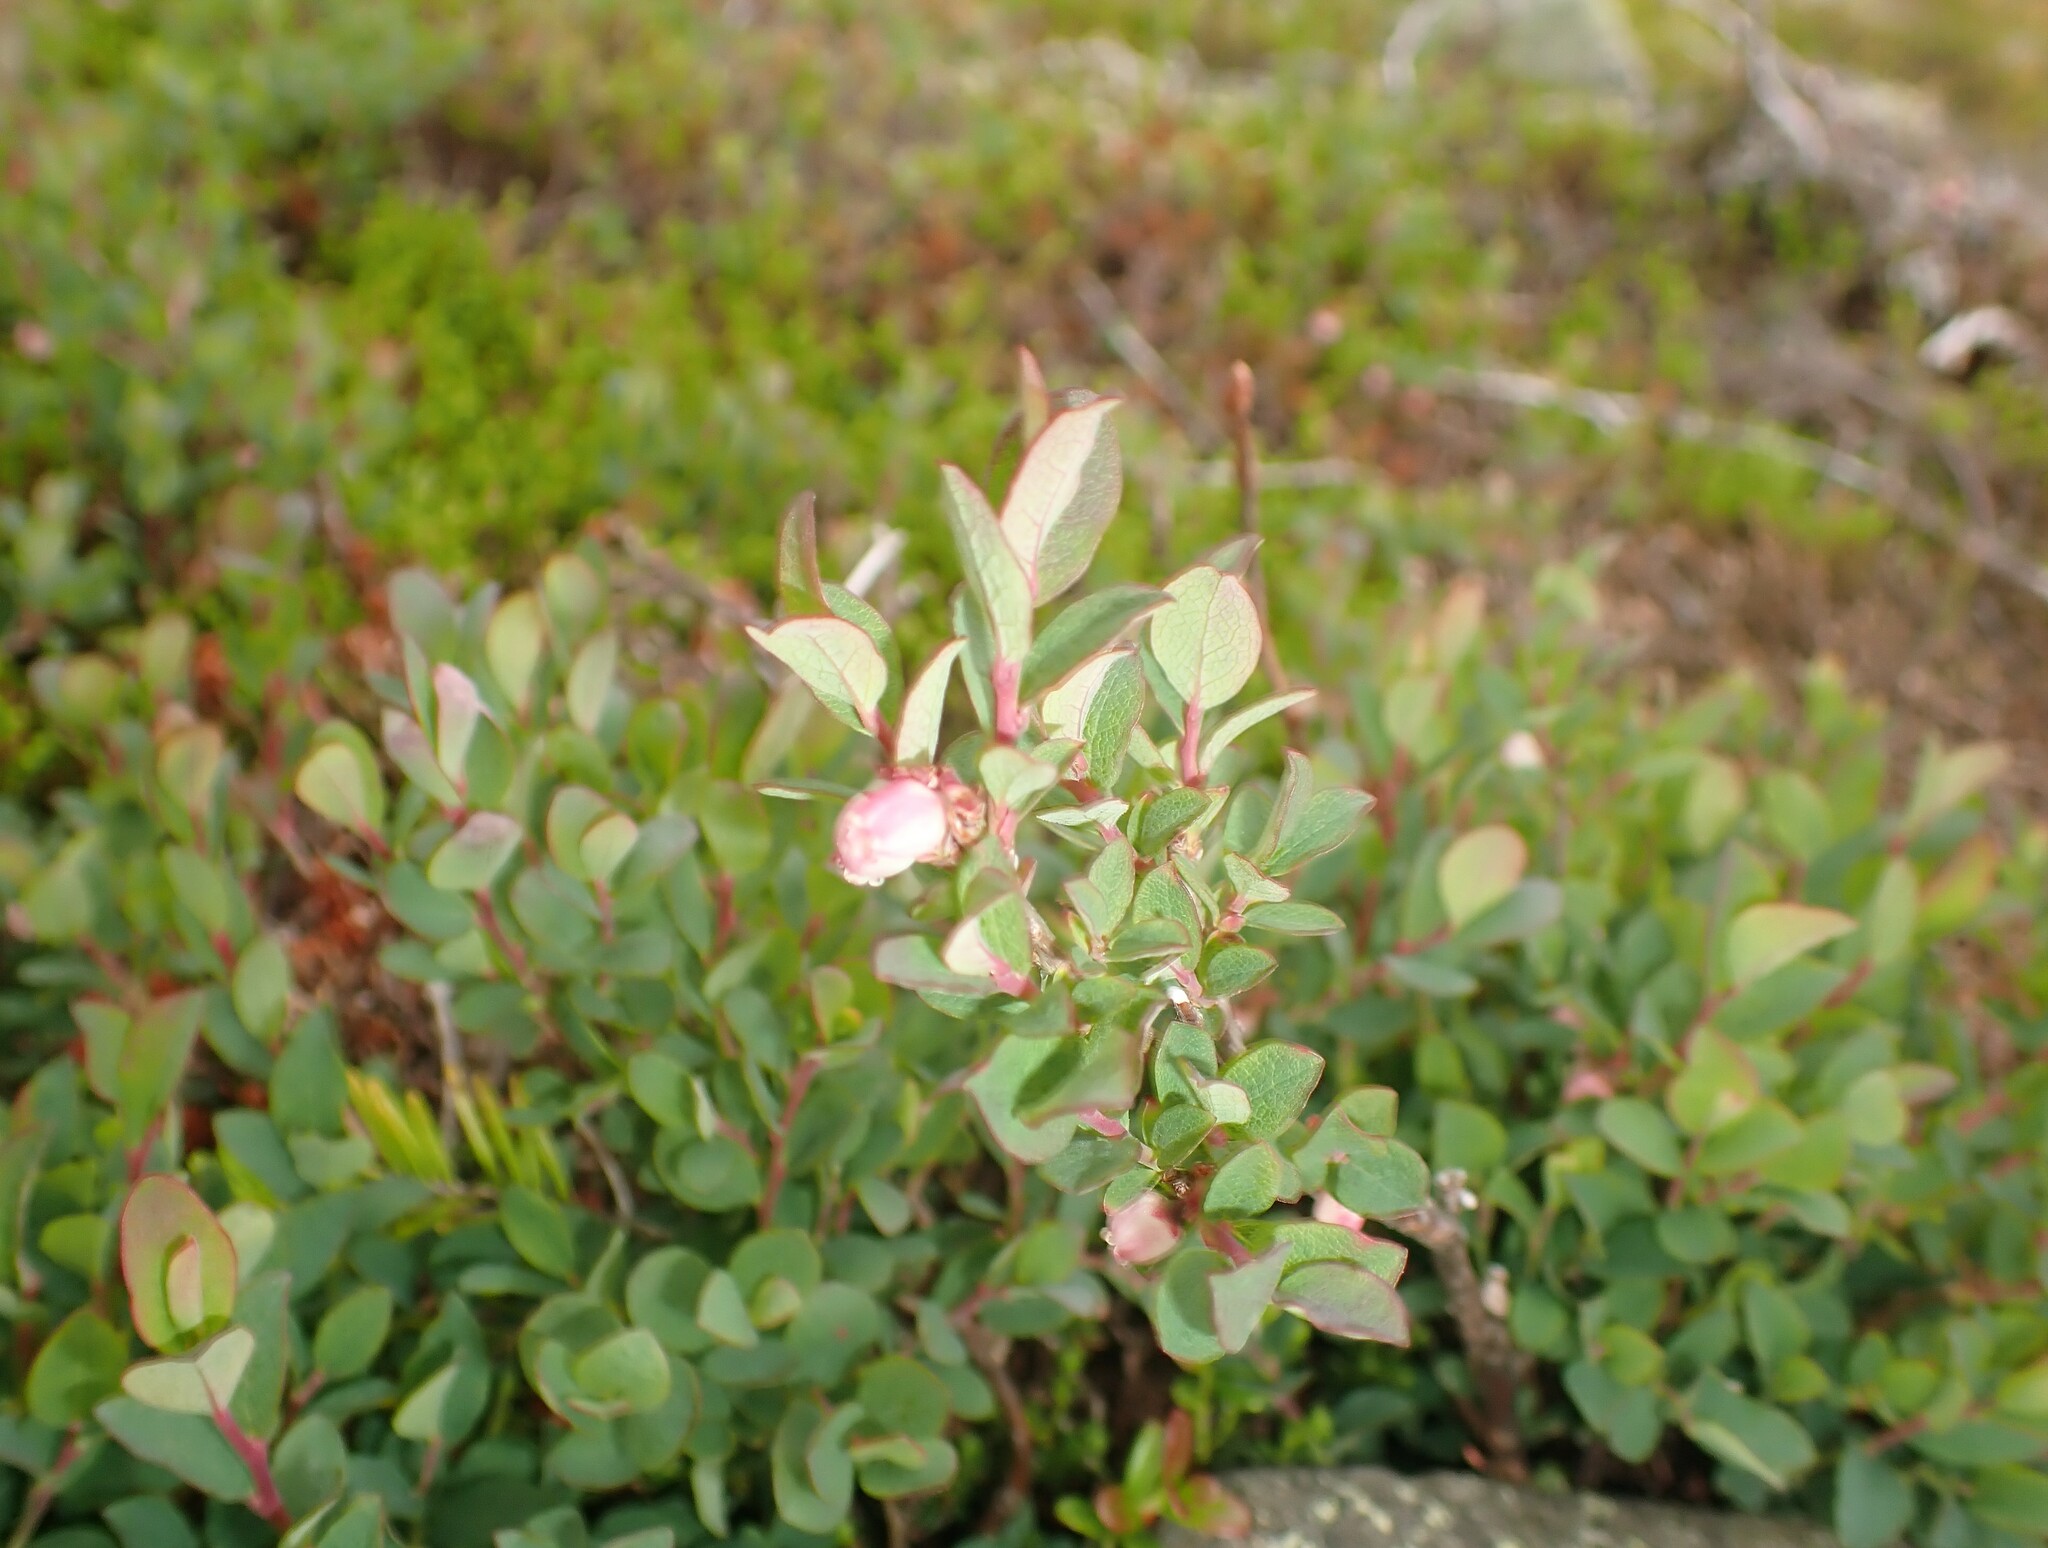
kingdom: Plantae
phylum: Tracheophyta
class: Magnoliopsida
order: Ericales
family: Ericaceae
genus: Vaccinium
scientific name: Vaccinium uliginosum
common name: Bog bilberry
